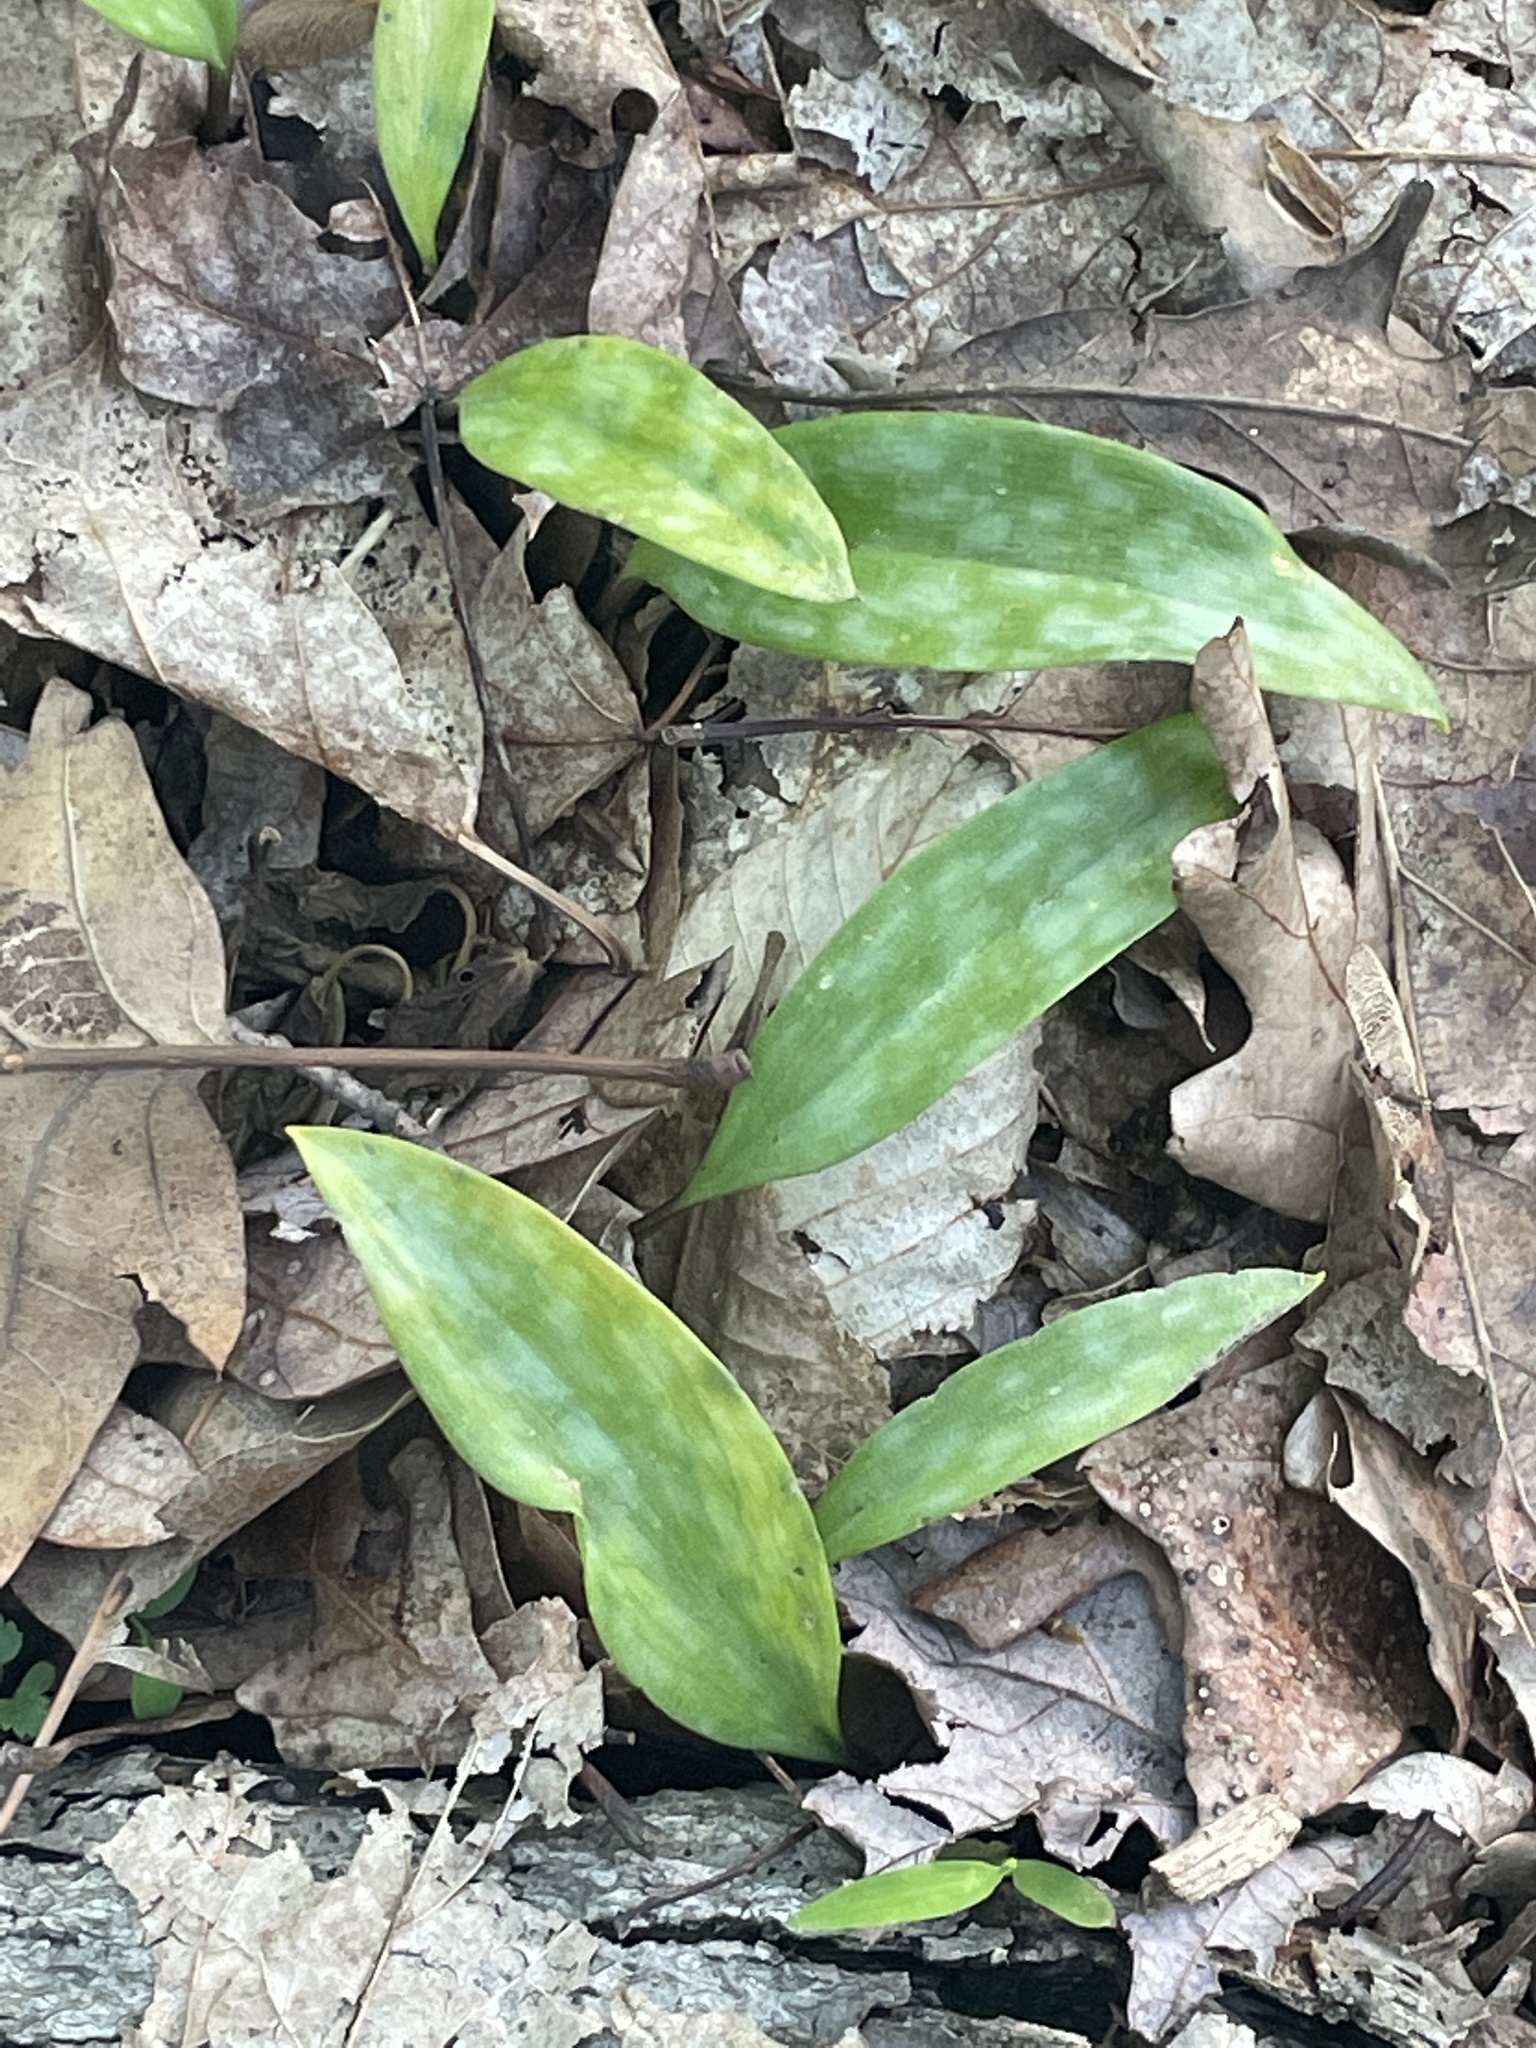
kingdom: Plantae
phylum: Tracheophyta
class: Liliopsida
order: Liliales
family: Liliaceae
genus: Erythronium
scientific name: Erythronium americanum
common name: Yellow adder's-tongue
